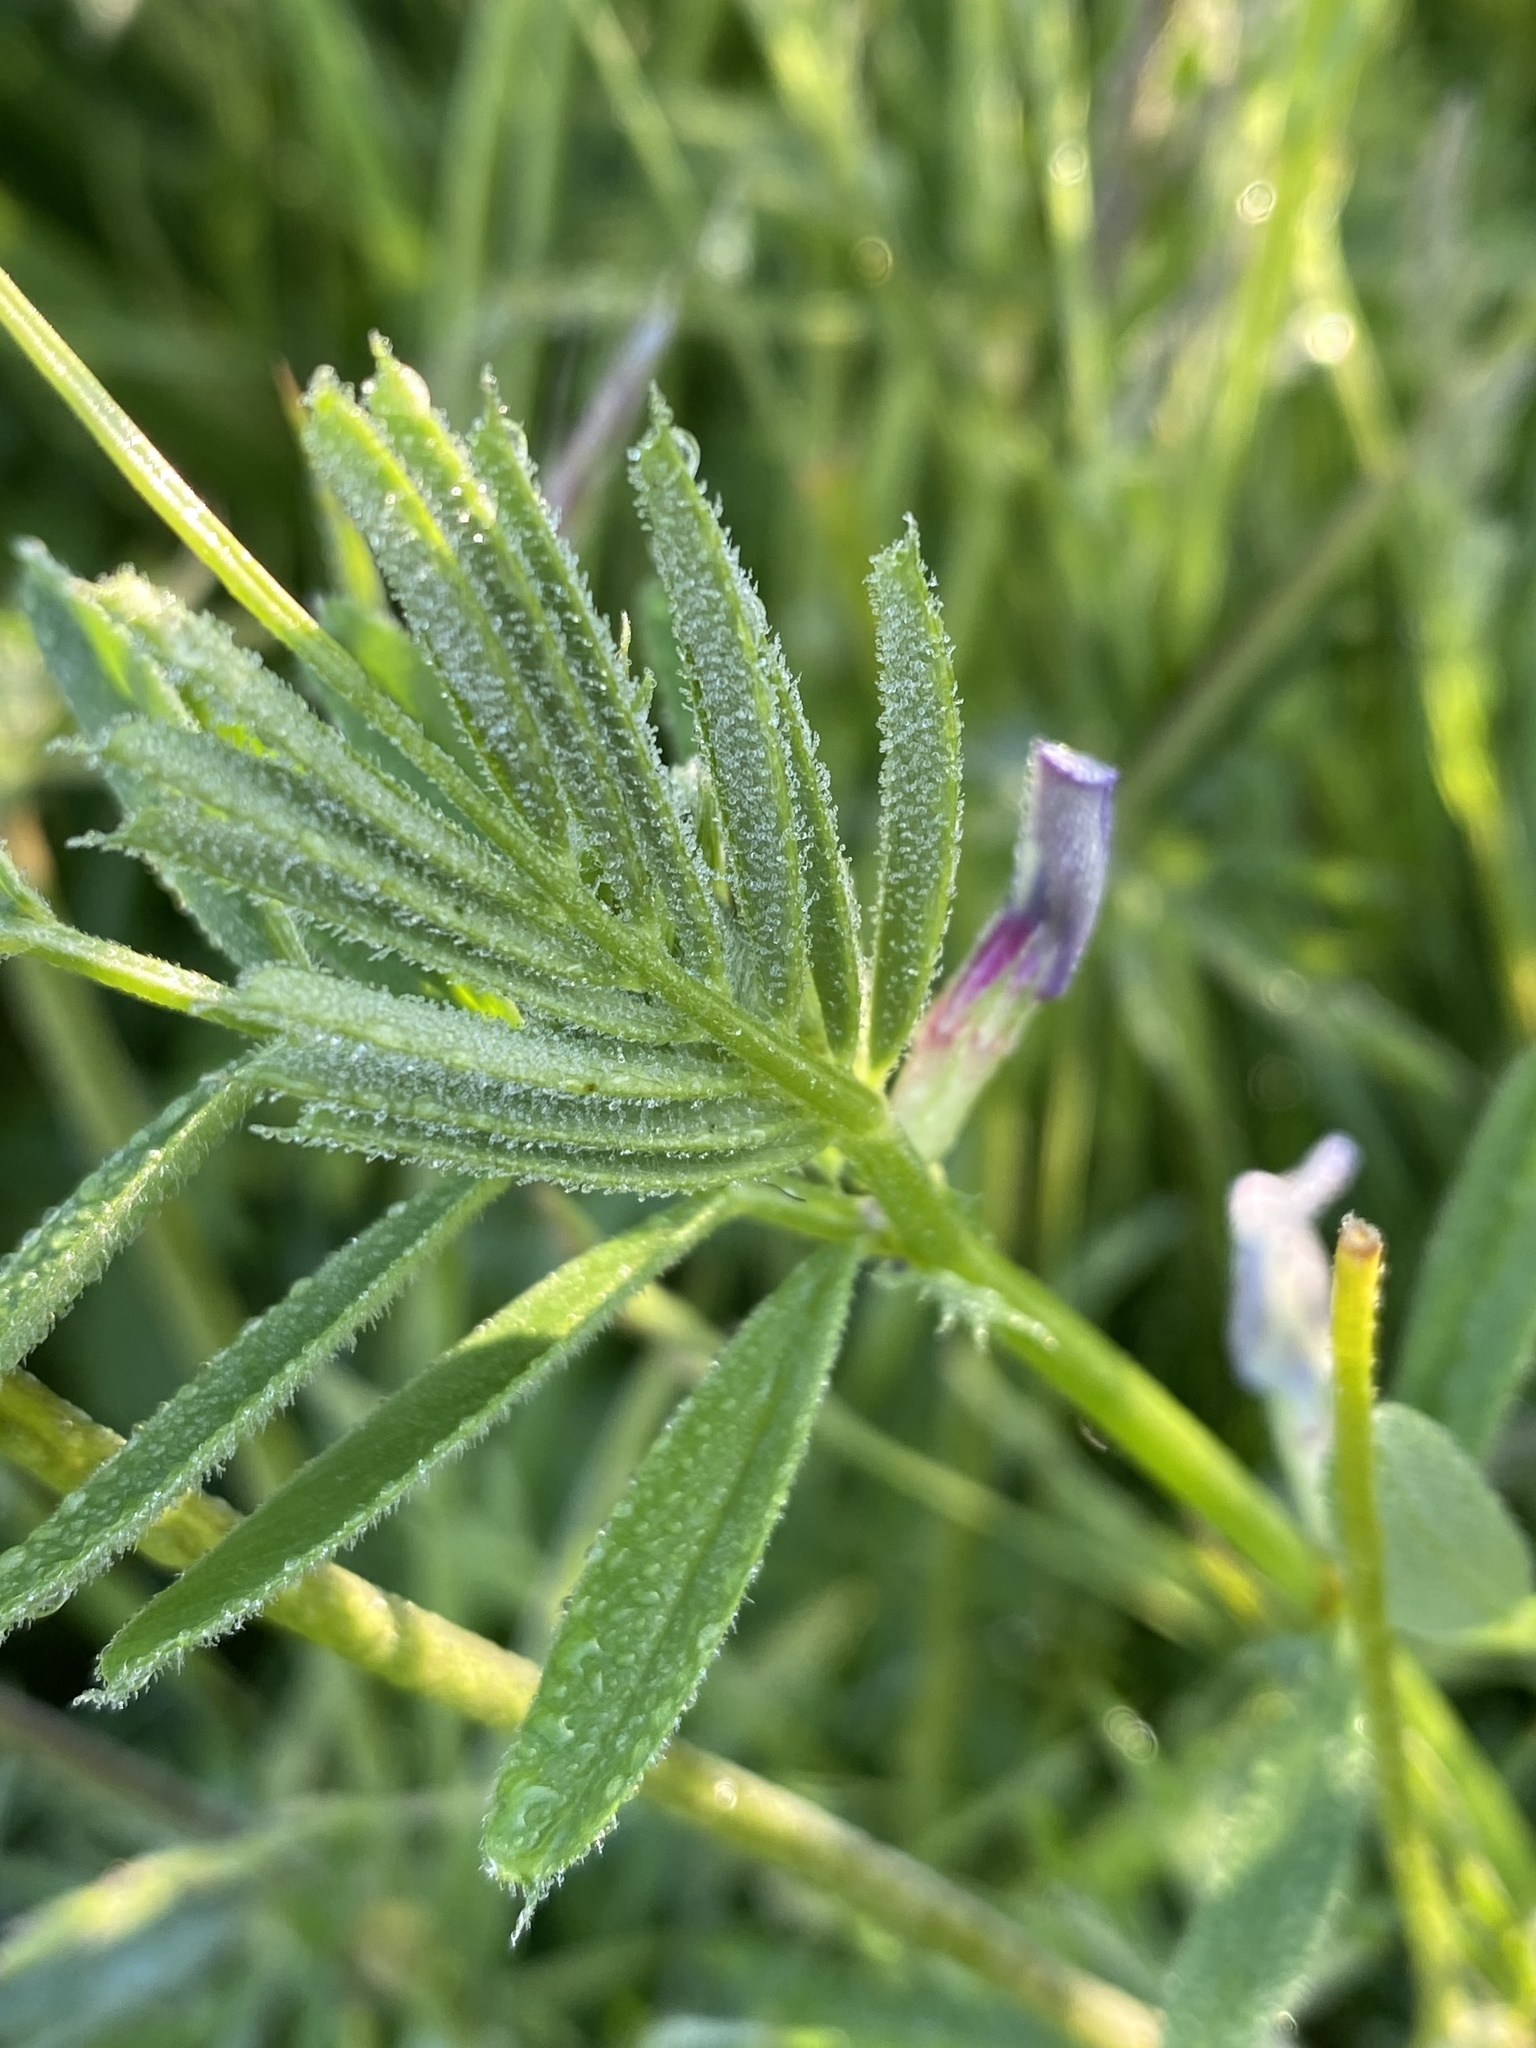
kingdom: Plantae
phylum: Tracheophyta
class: Magnoliopsida
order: Fabales
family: Fabaceae
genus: Vicia
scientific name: Vicia sativa
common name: Garden vetch
